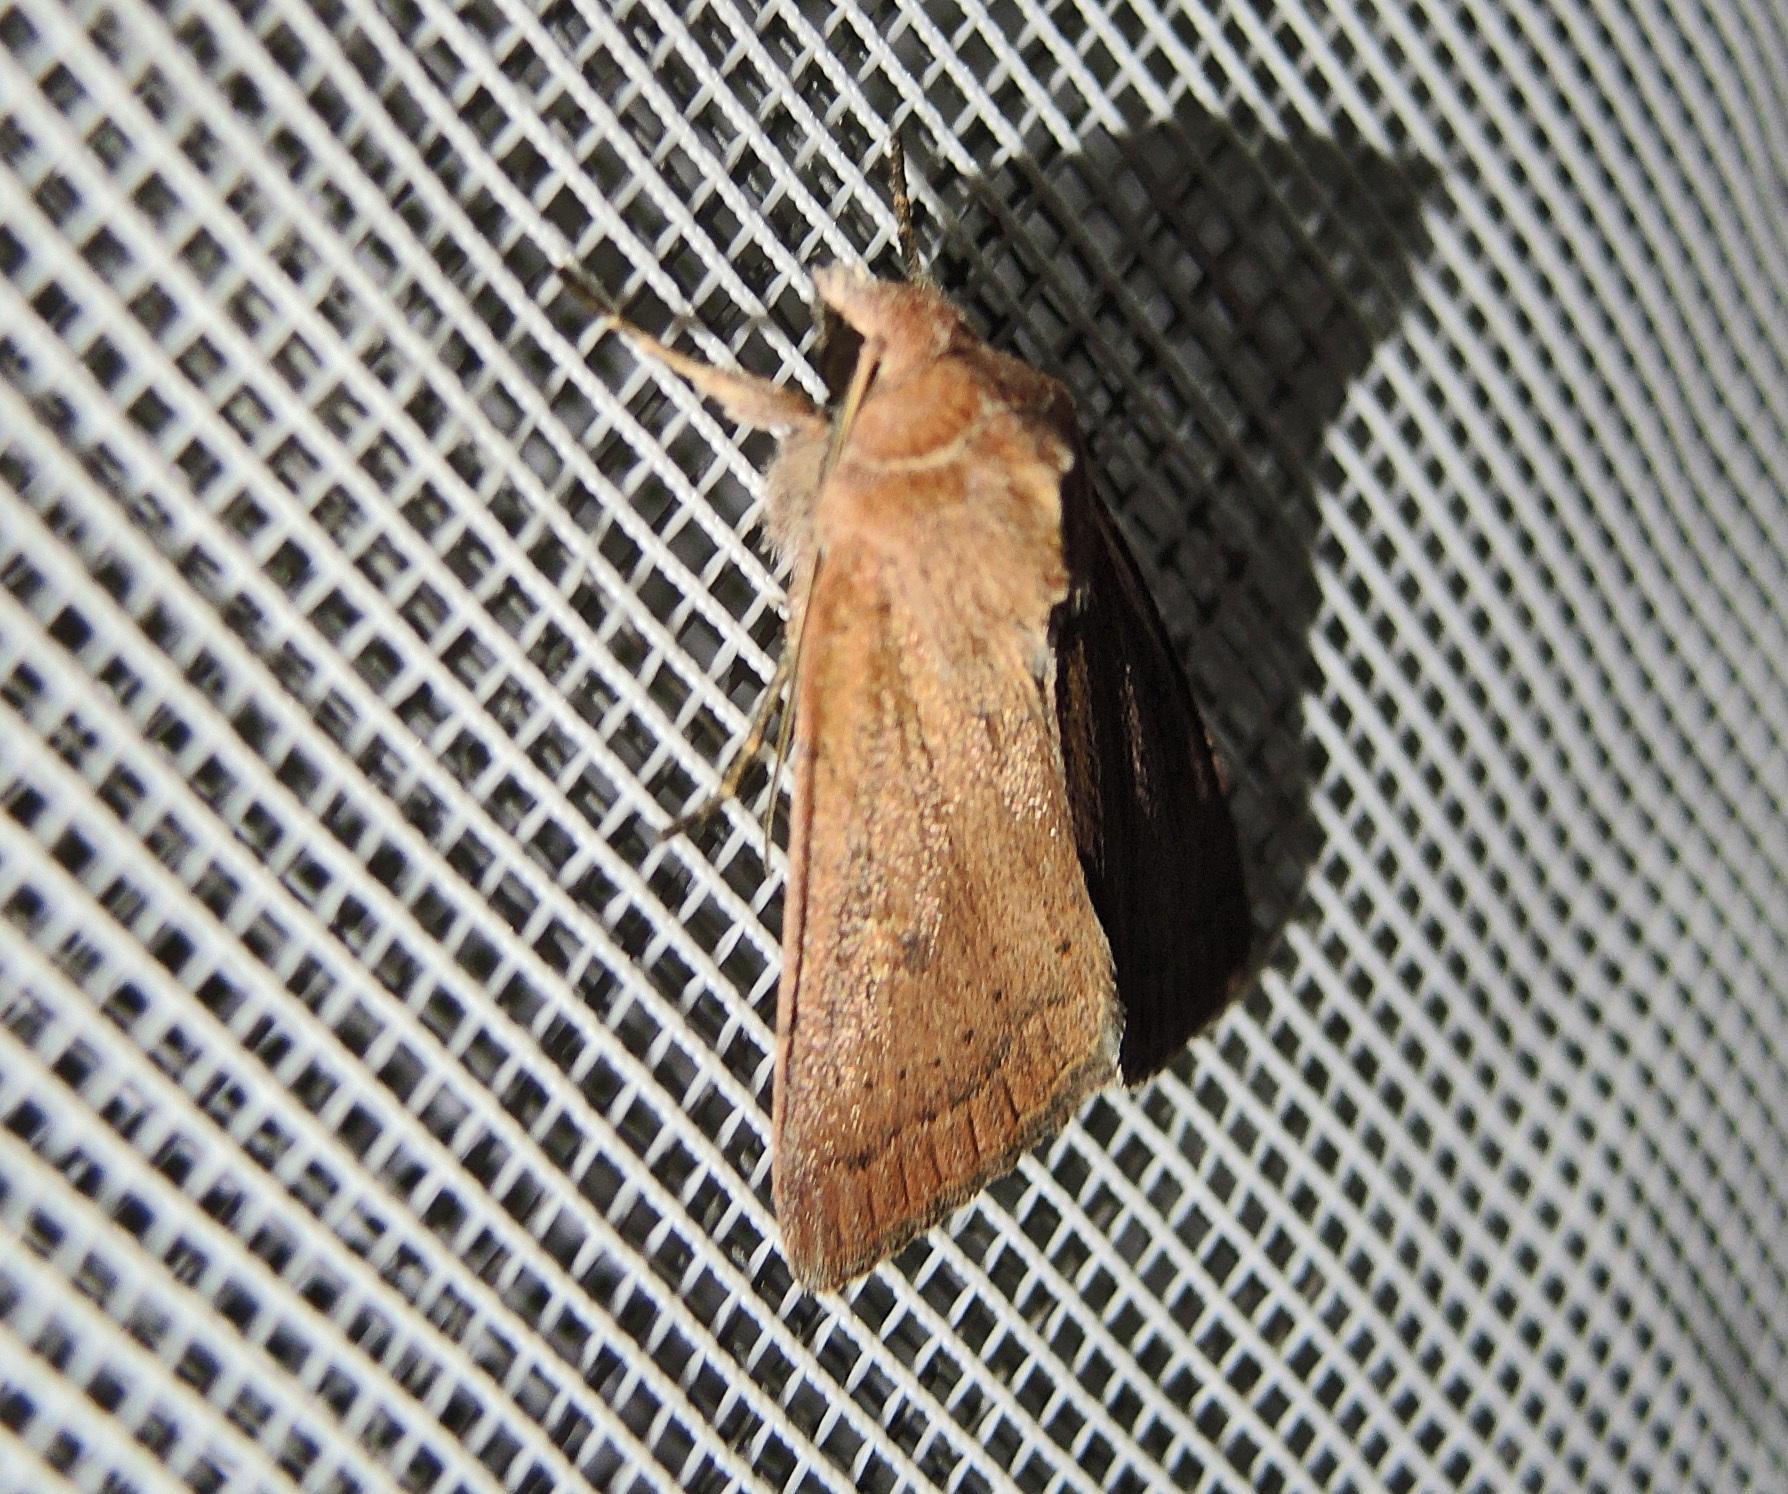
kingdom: Animalia
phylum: Arthropoda
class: Insecta
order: Lepidoptera
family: Noctuidae
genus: Xestia
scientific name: Xestia xanthographa
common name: Square-spot rustic
